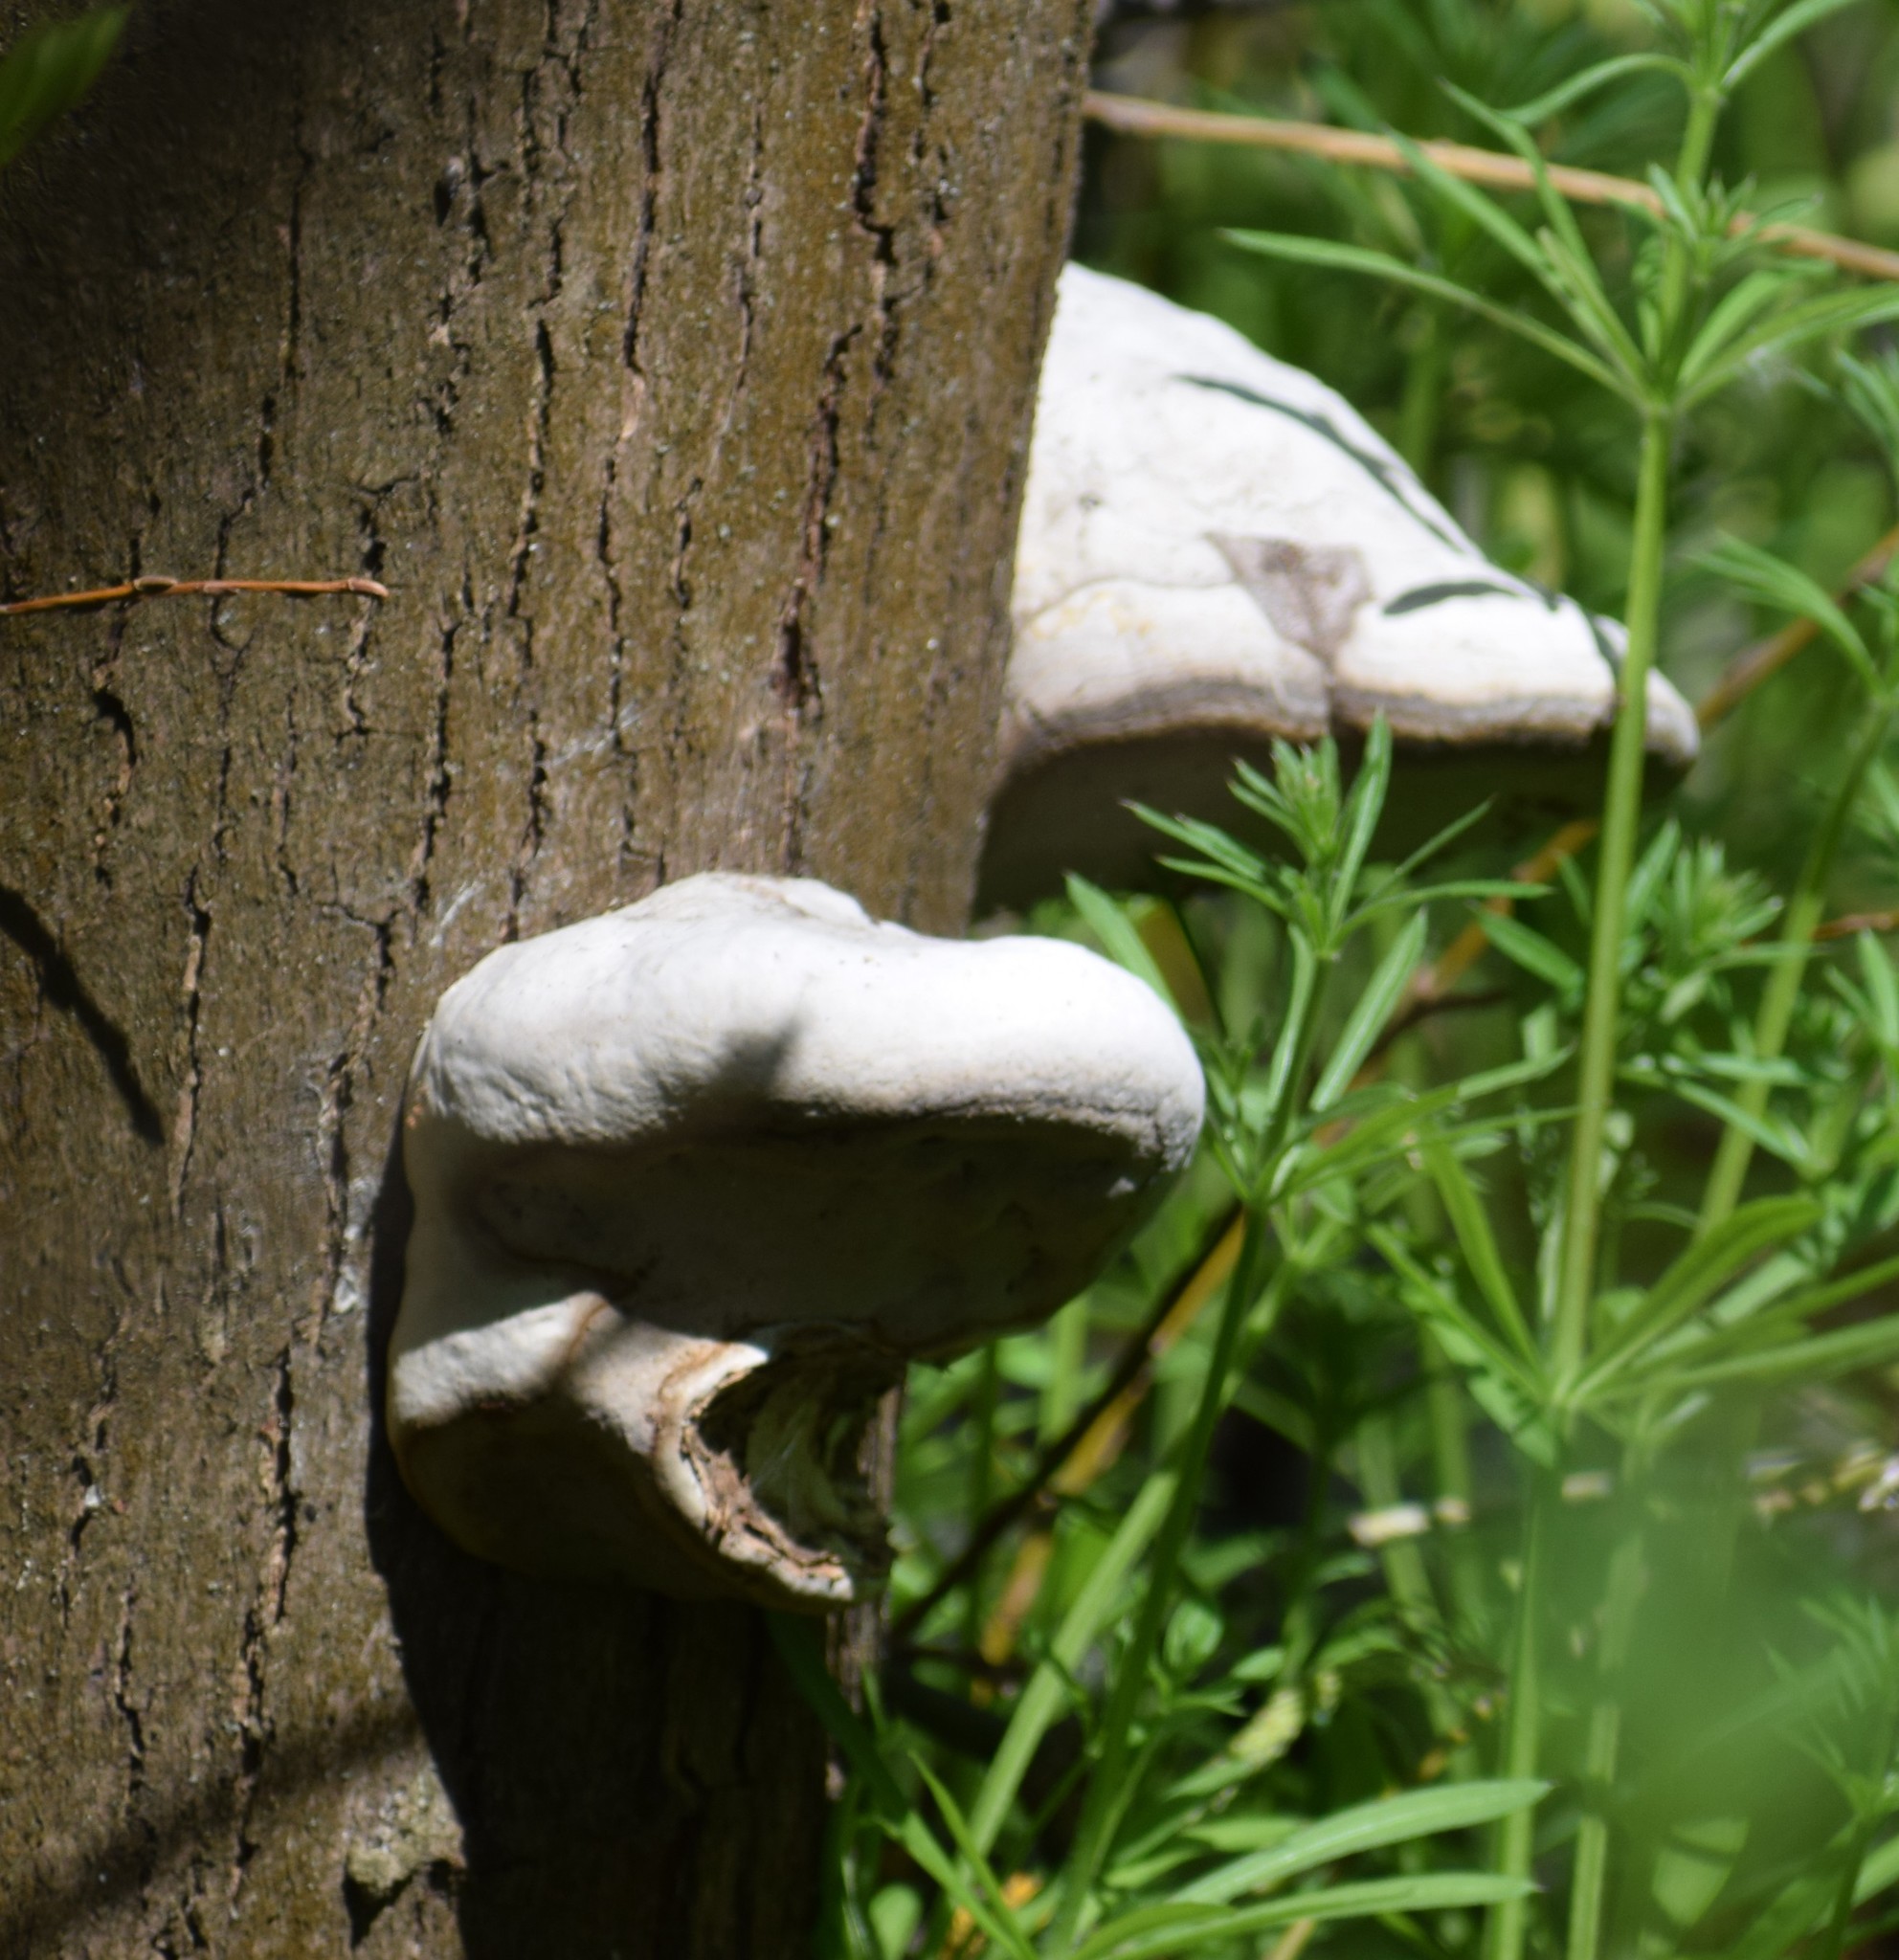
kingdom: Fungi
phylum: Basidiomycota
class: Agaricomycetes
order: Polyporales
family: Polyporaceae
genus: Fomes
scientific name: Fomes fomentarius
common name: Hoof fungus
